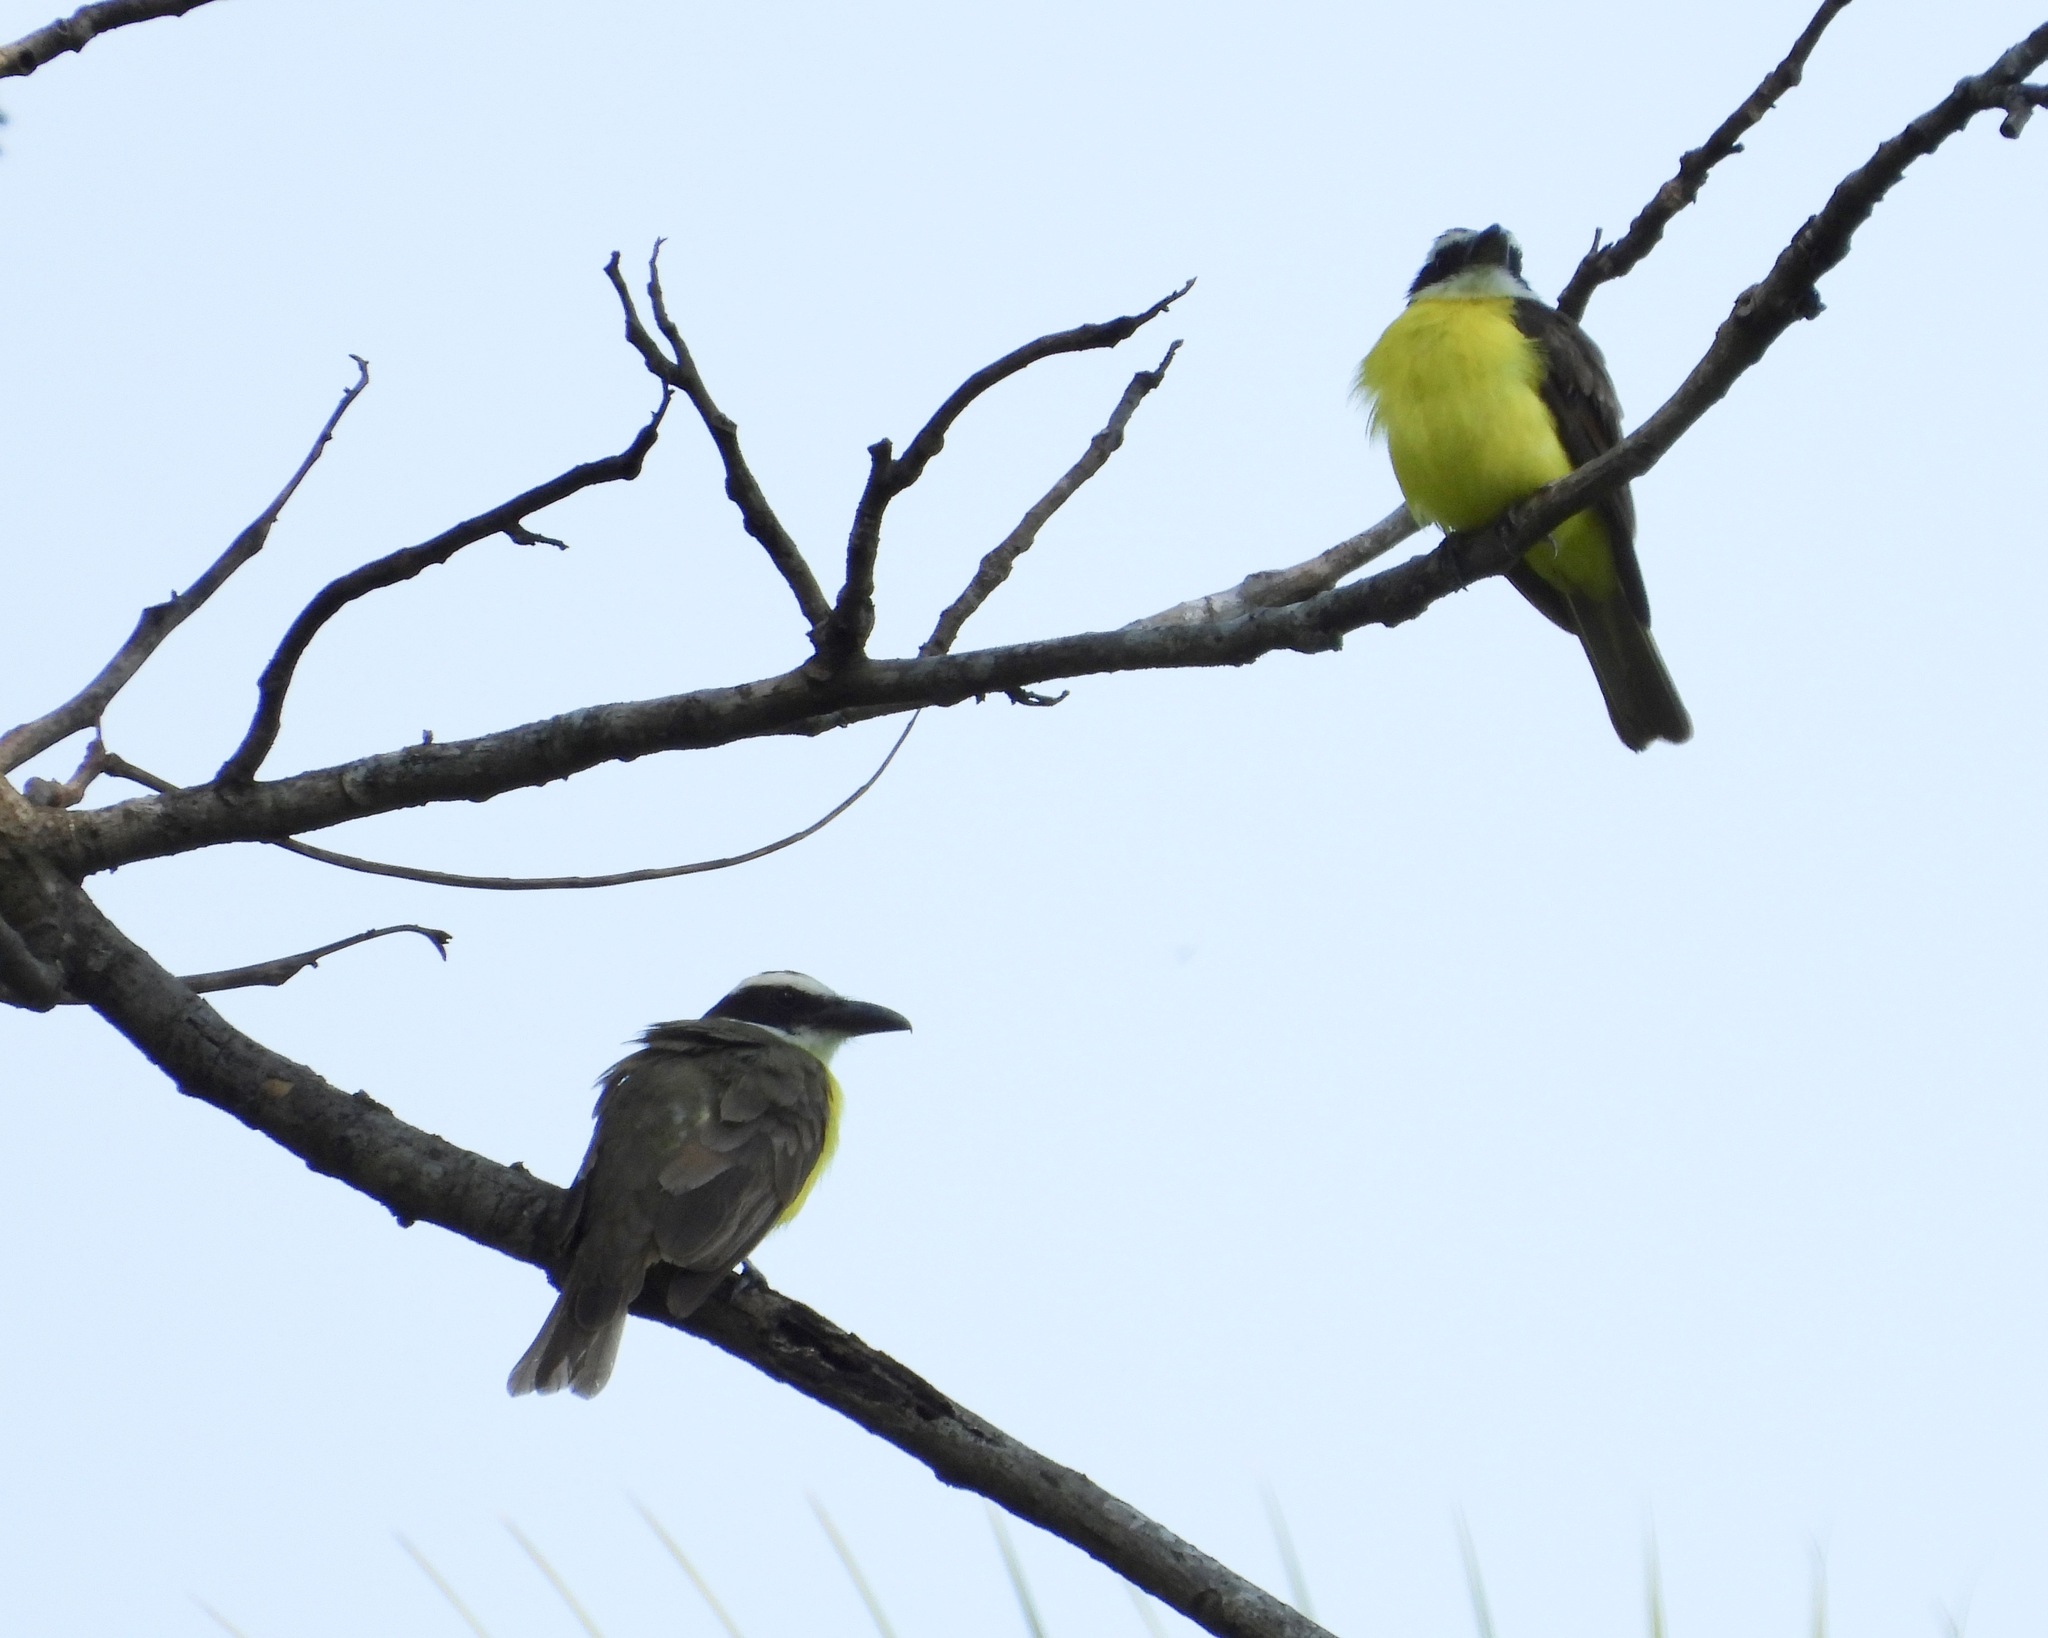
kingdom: Animalia
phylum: Chordata
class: Aves
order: Passeriformes
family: Tyrannidae
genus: Megarynchus
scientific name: Megarynchus pitangua
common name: Boat-billed flycatcher
